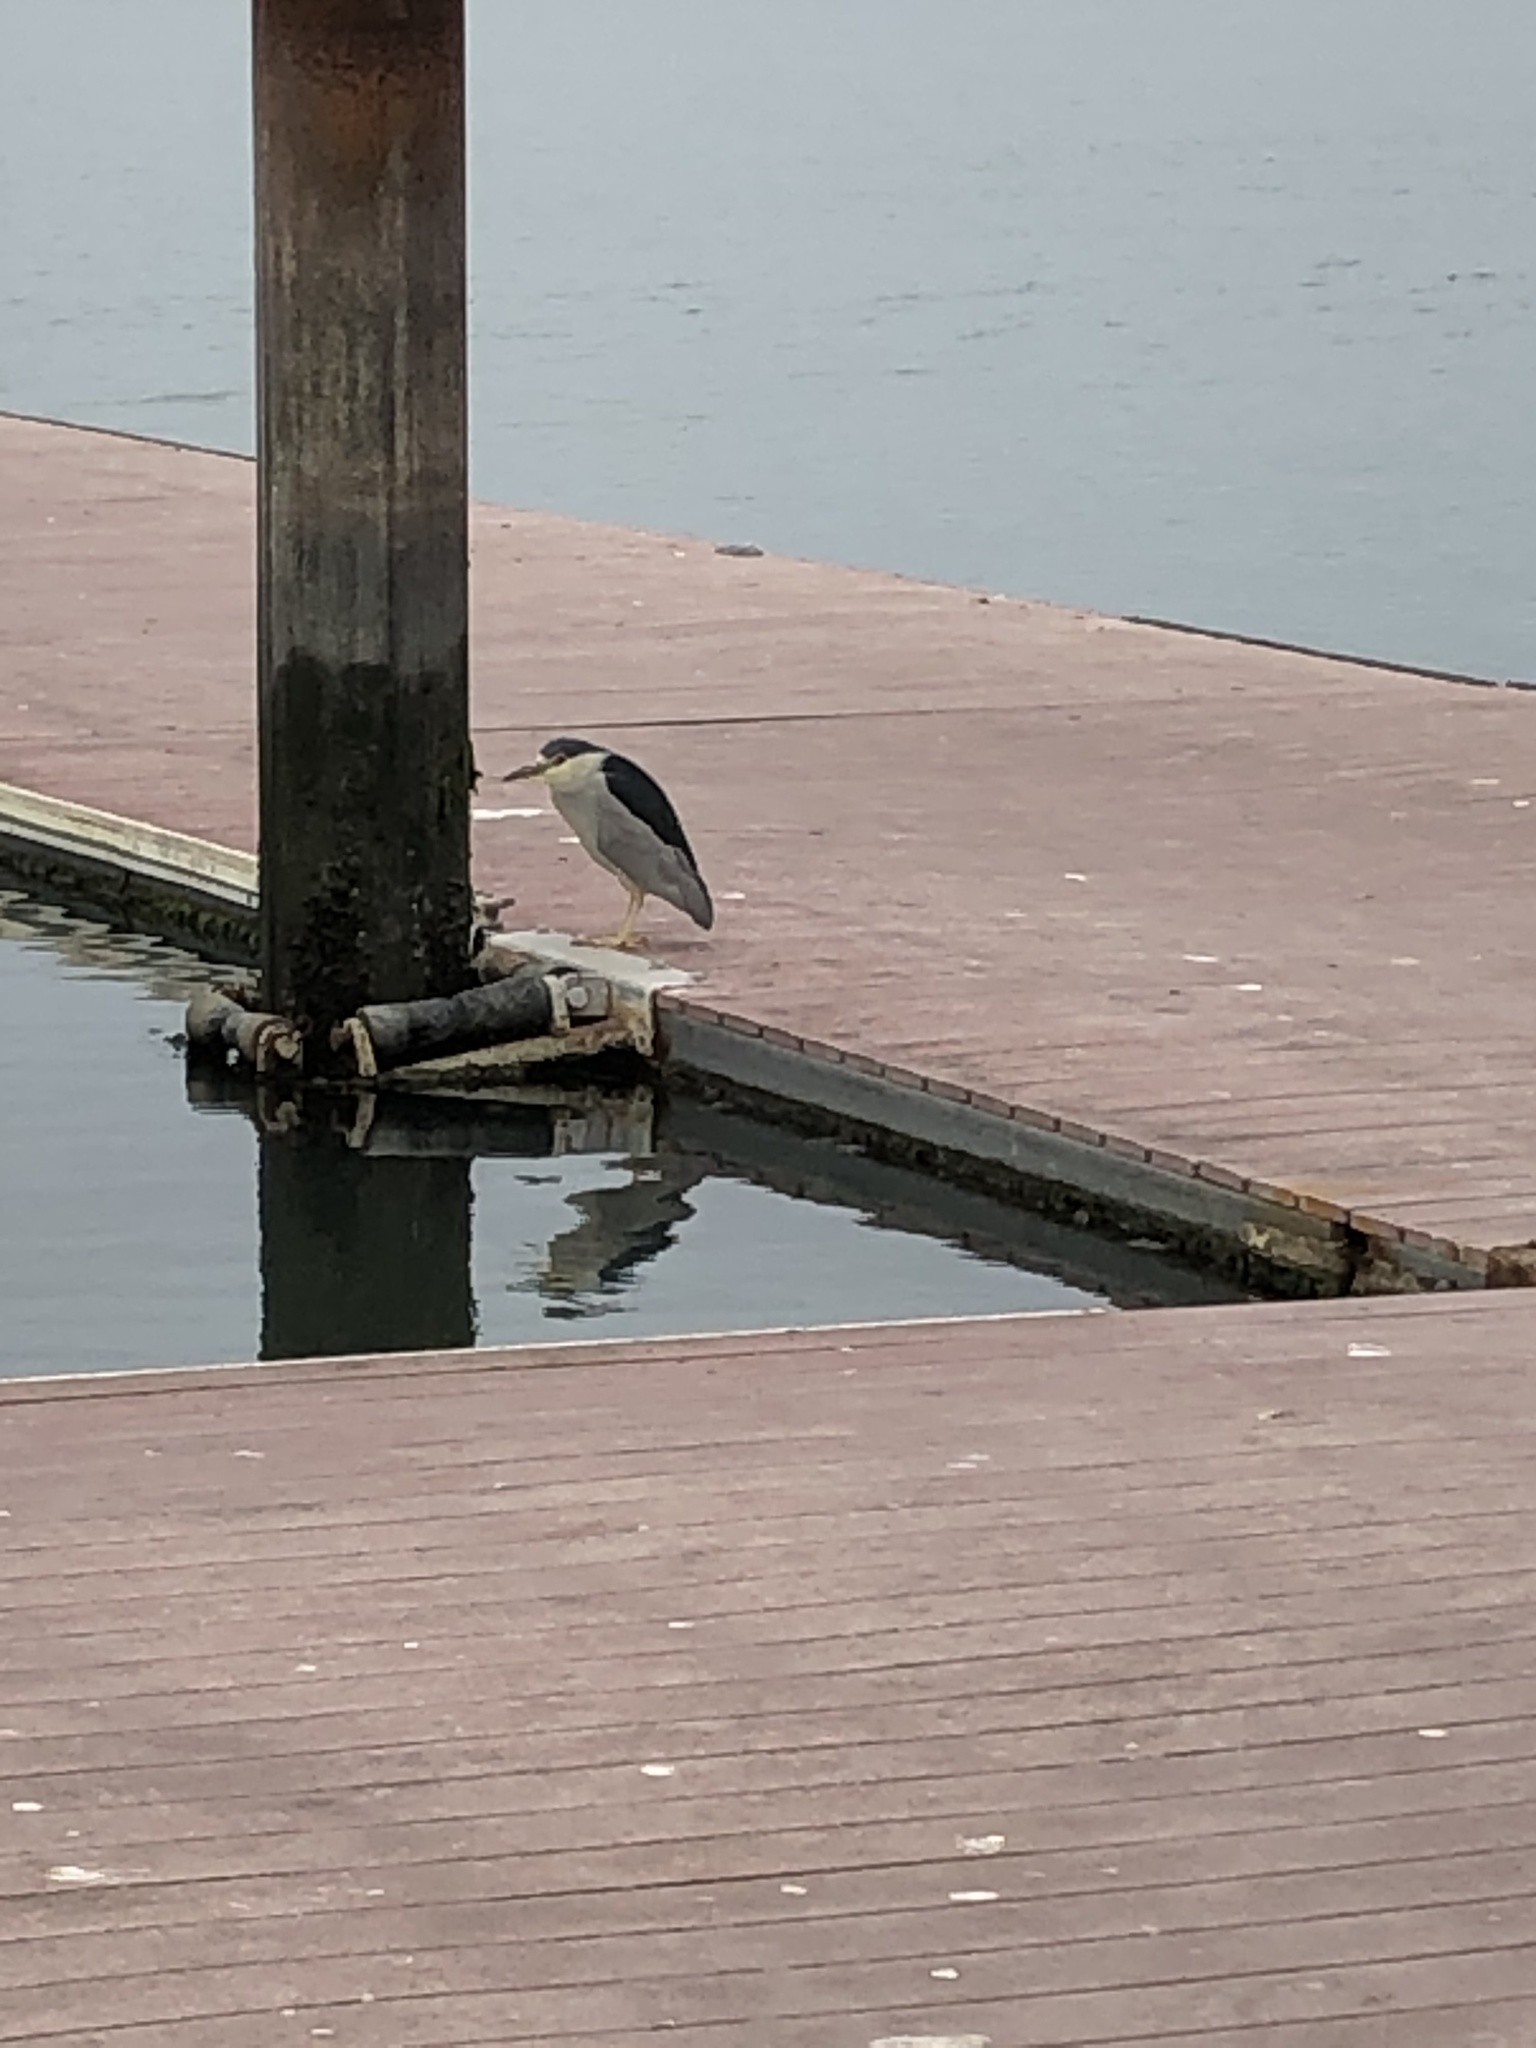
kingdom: Animalia
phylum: Chordata
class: Aves
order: Pelecaniformes
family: Ardeidae
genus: Nycticorax
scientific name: Nycticorax nycticorax
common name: Black-crowned night heron
